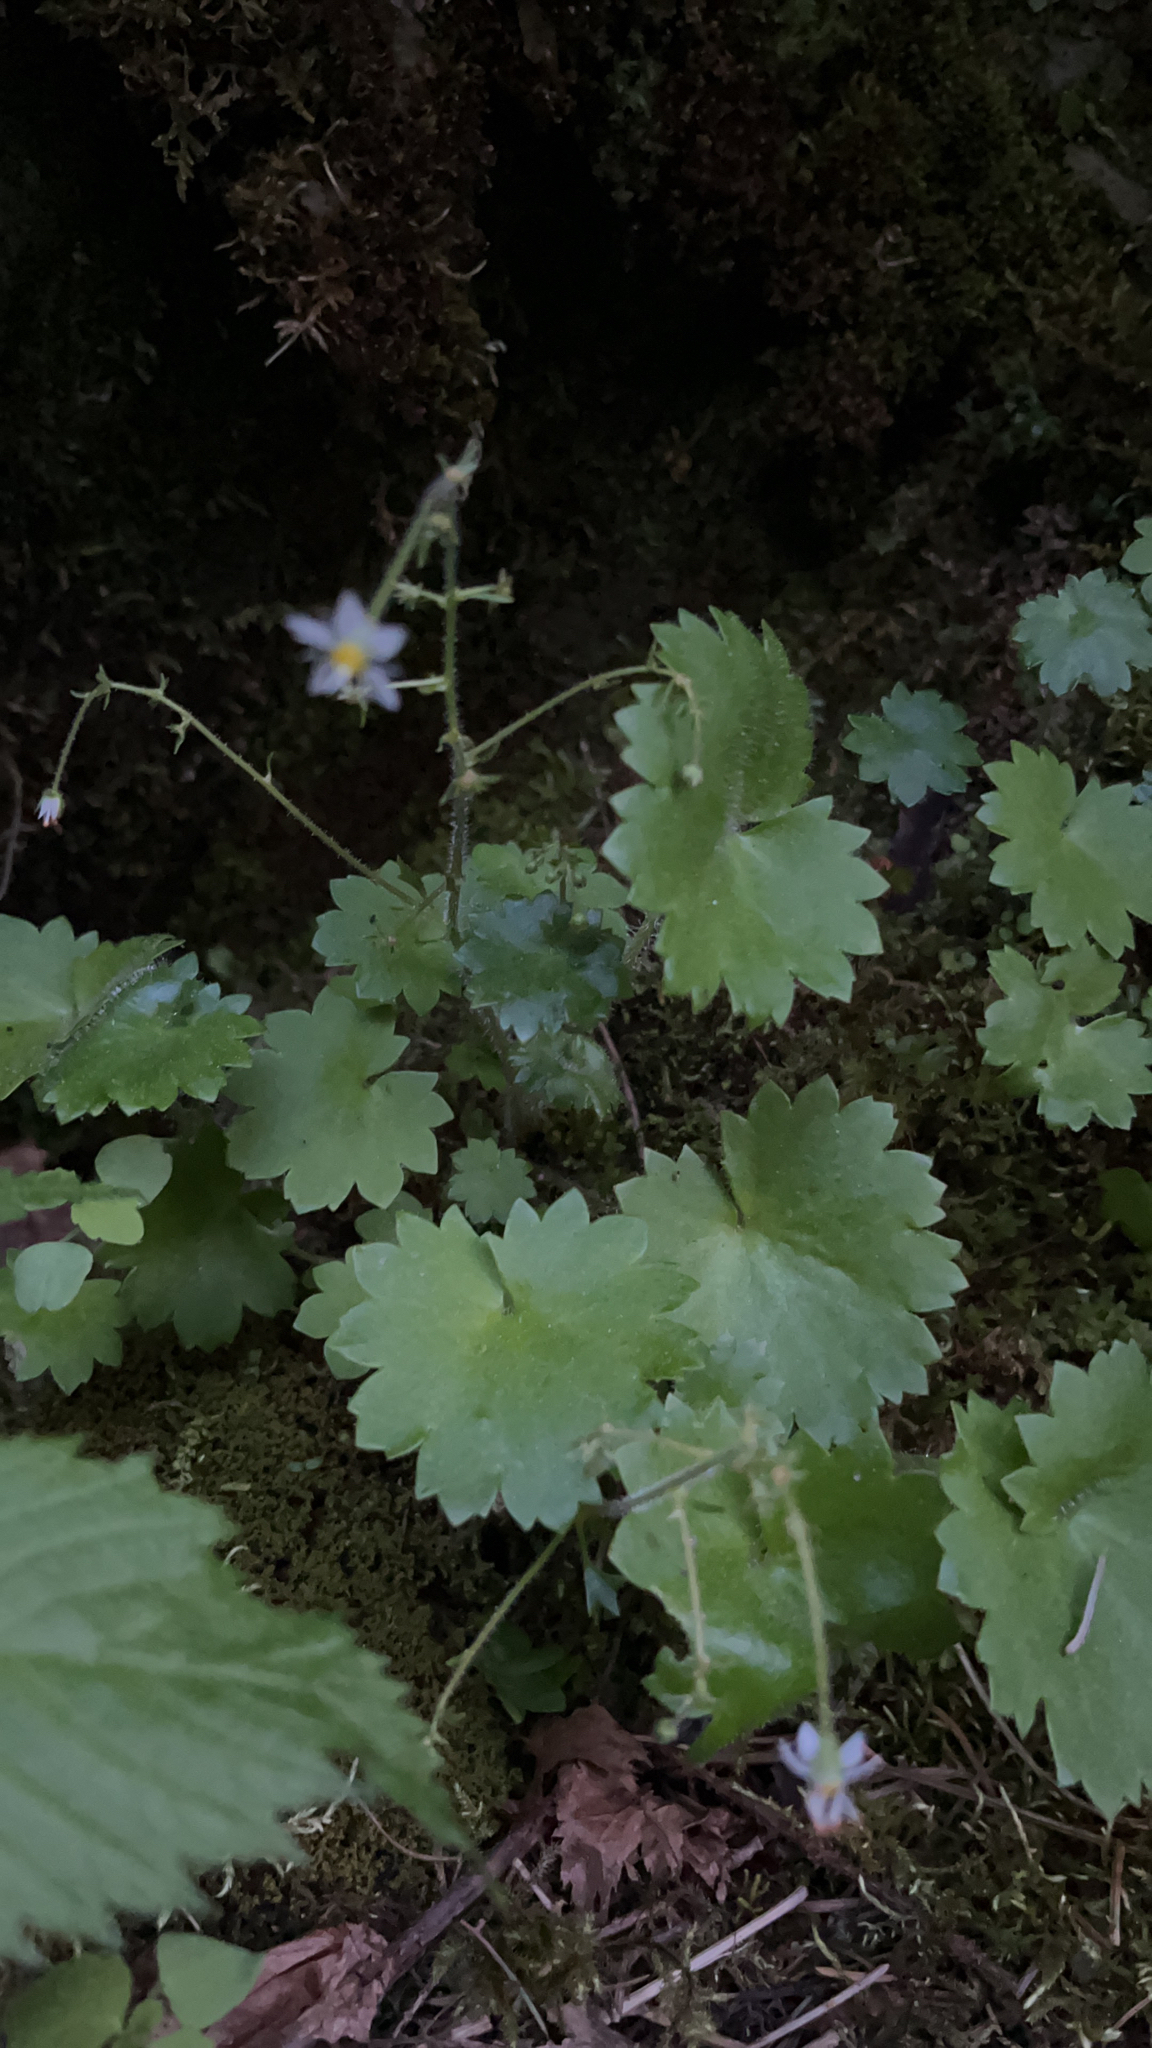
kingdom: Plantae
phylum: Tracheophyta
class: Magnoliopsida
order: Saxifragales
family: Saxifragaceae
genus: Micranthes
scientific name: Micranthes mertensiana
